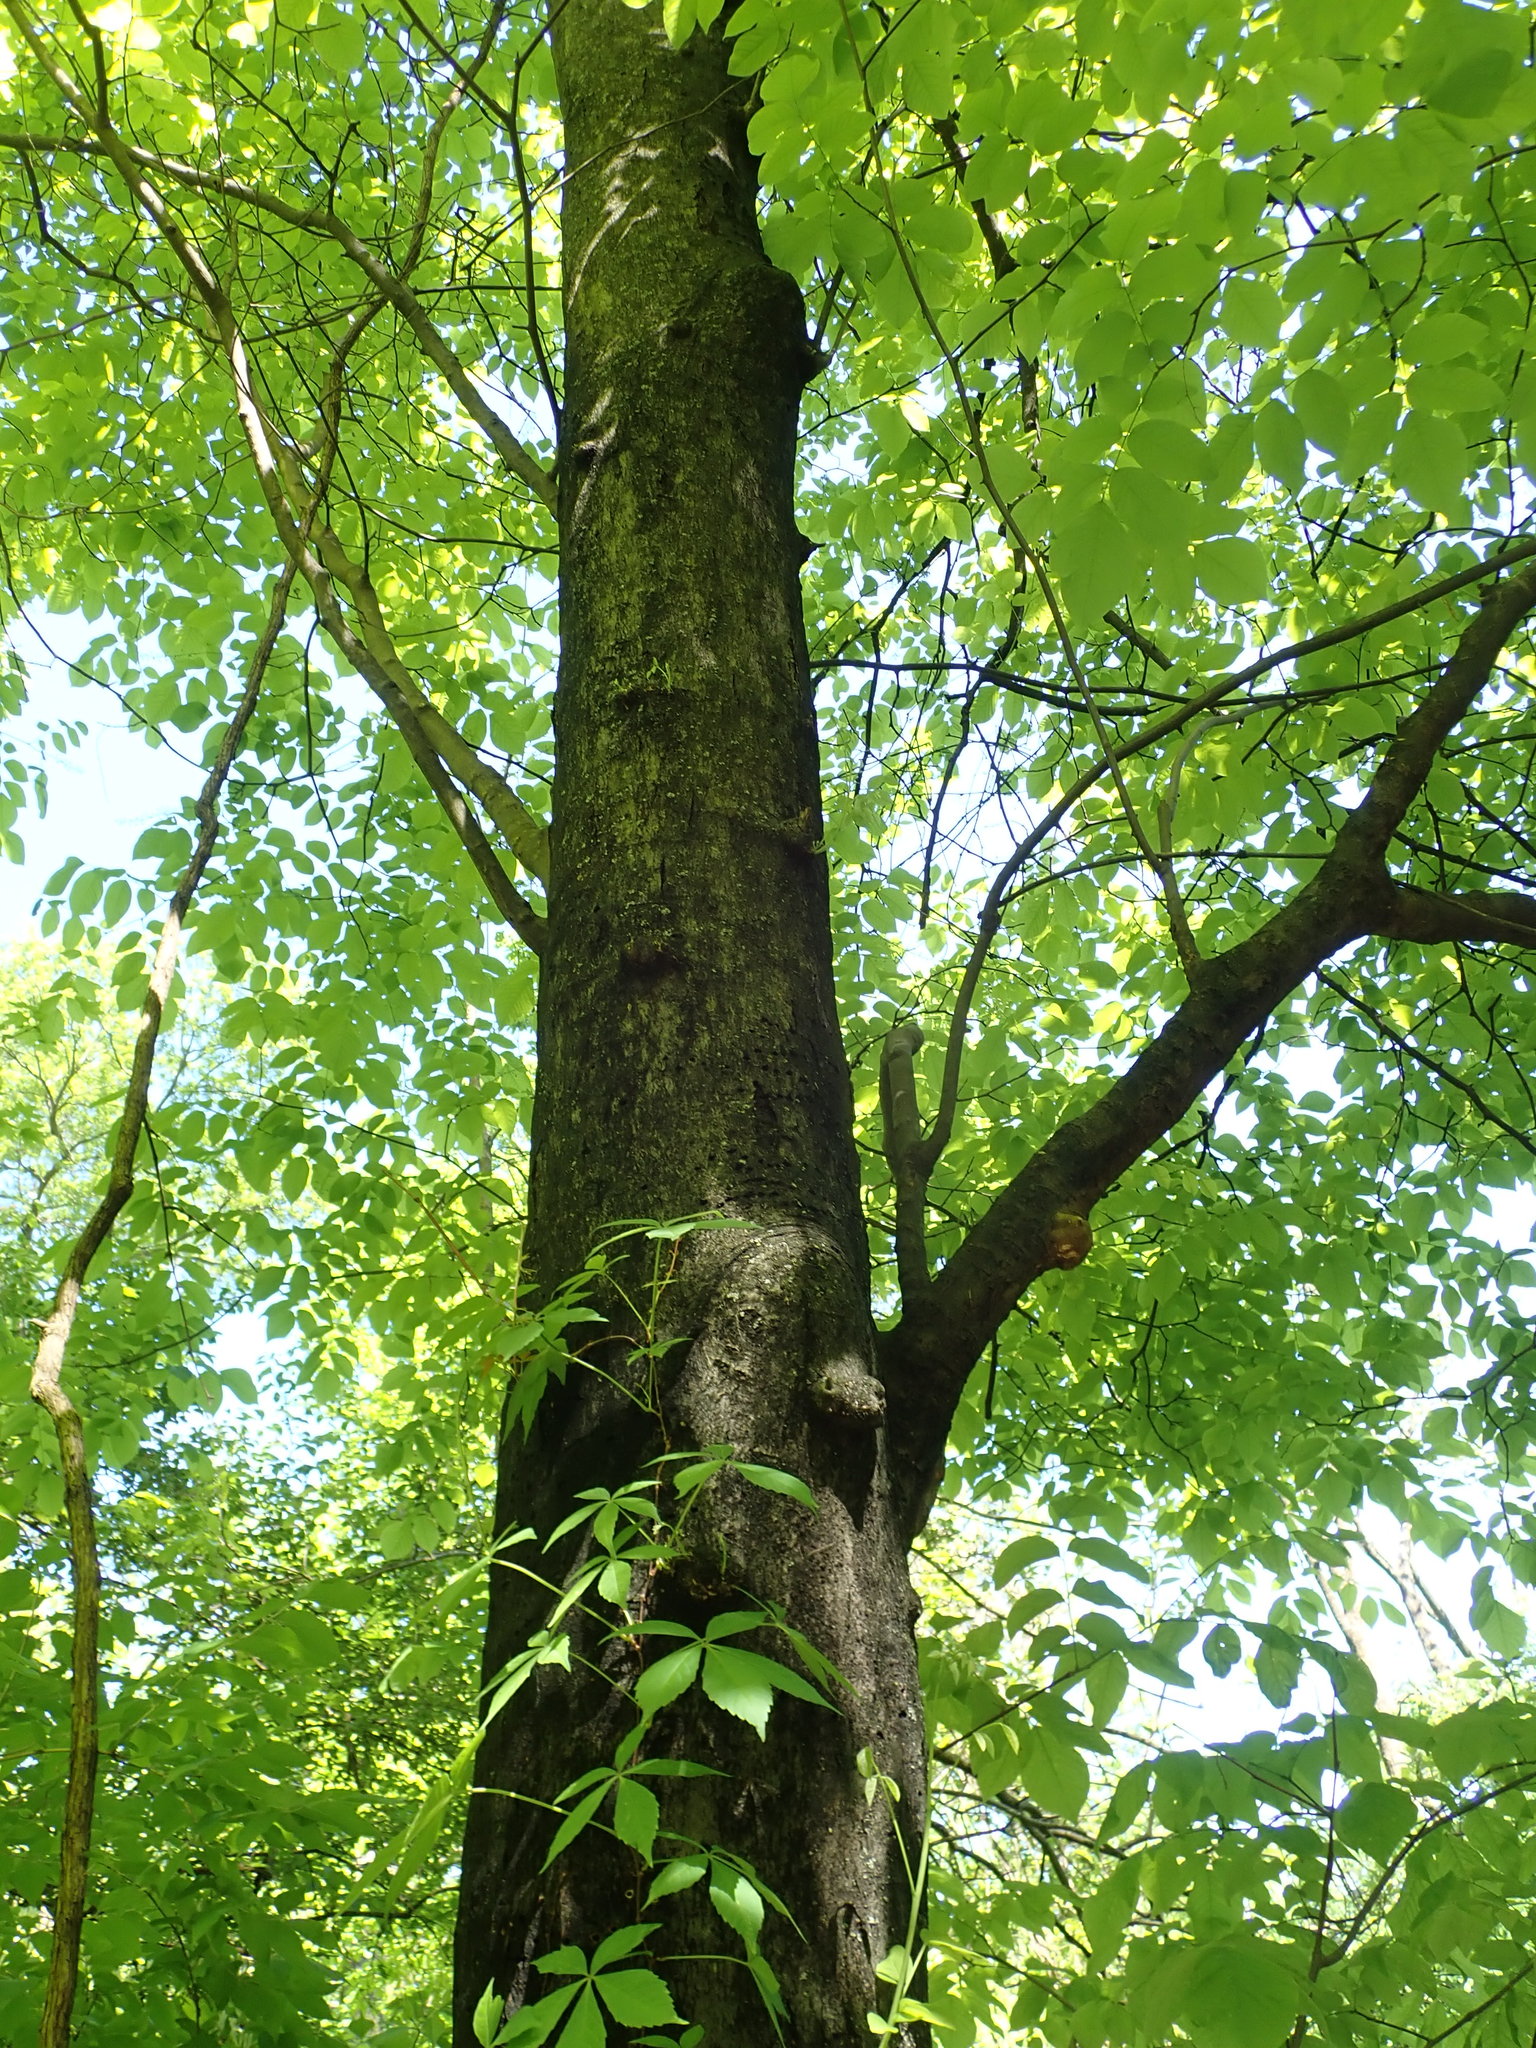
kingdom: Plantae
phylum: Tracheophyta
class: Magnoliopsida
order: Fabales
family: Fabaceae
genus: Cladrastis
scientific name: Cladrastis kentukea
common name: Kentucky yellow-wood
